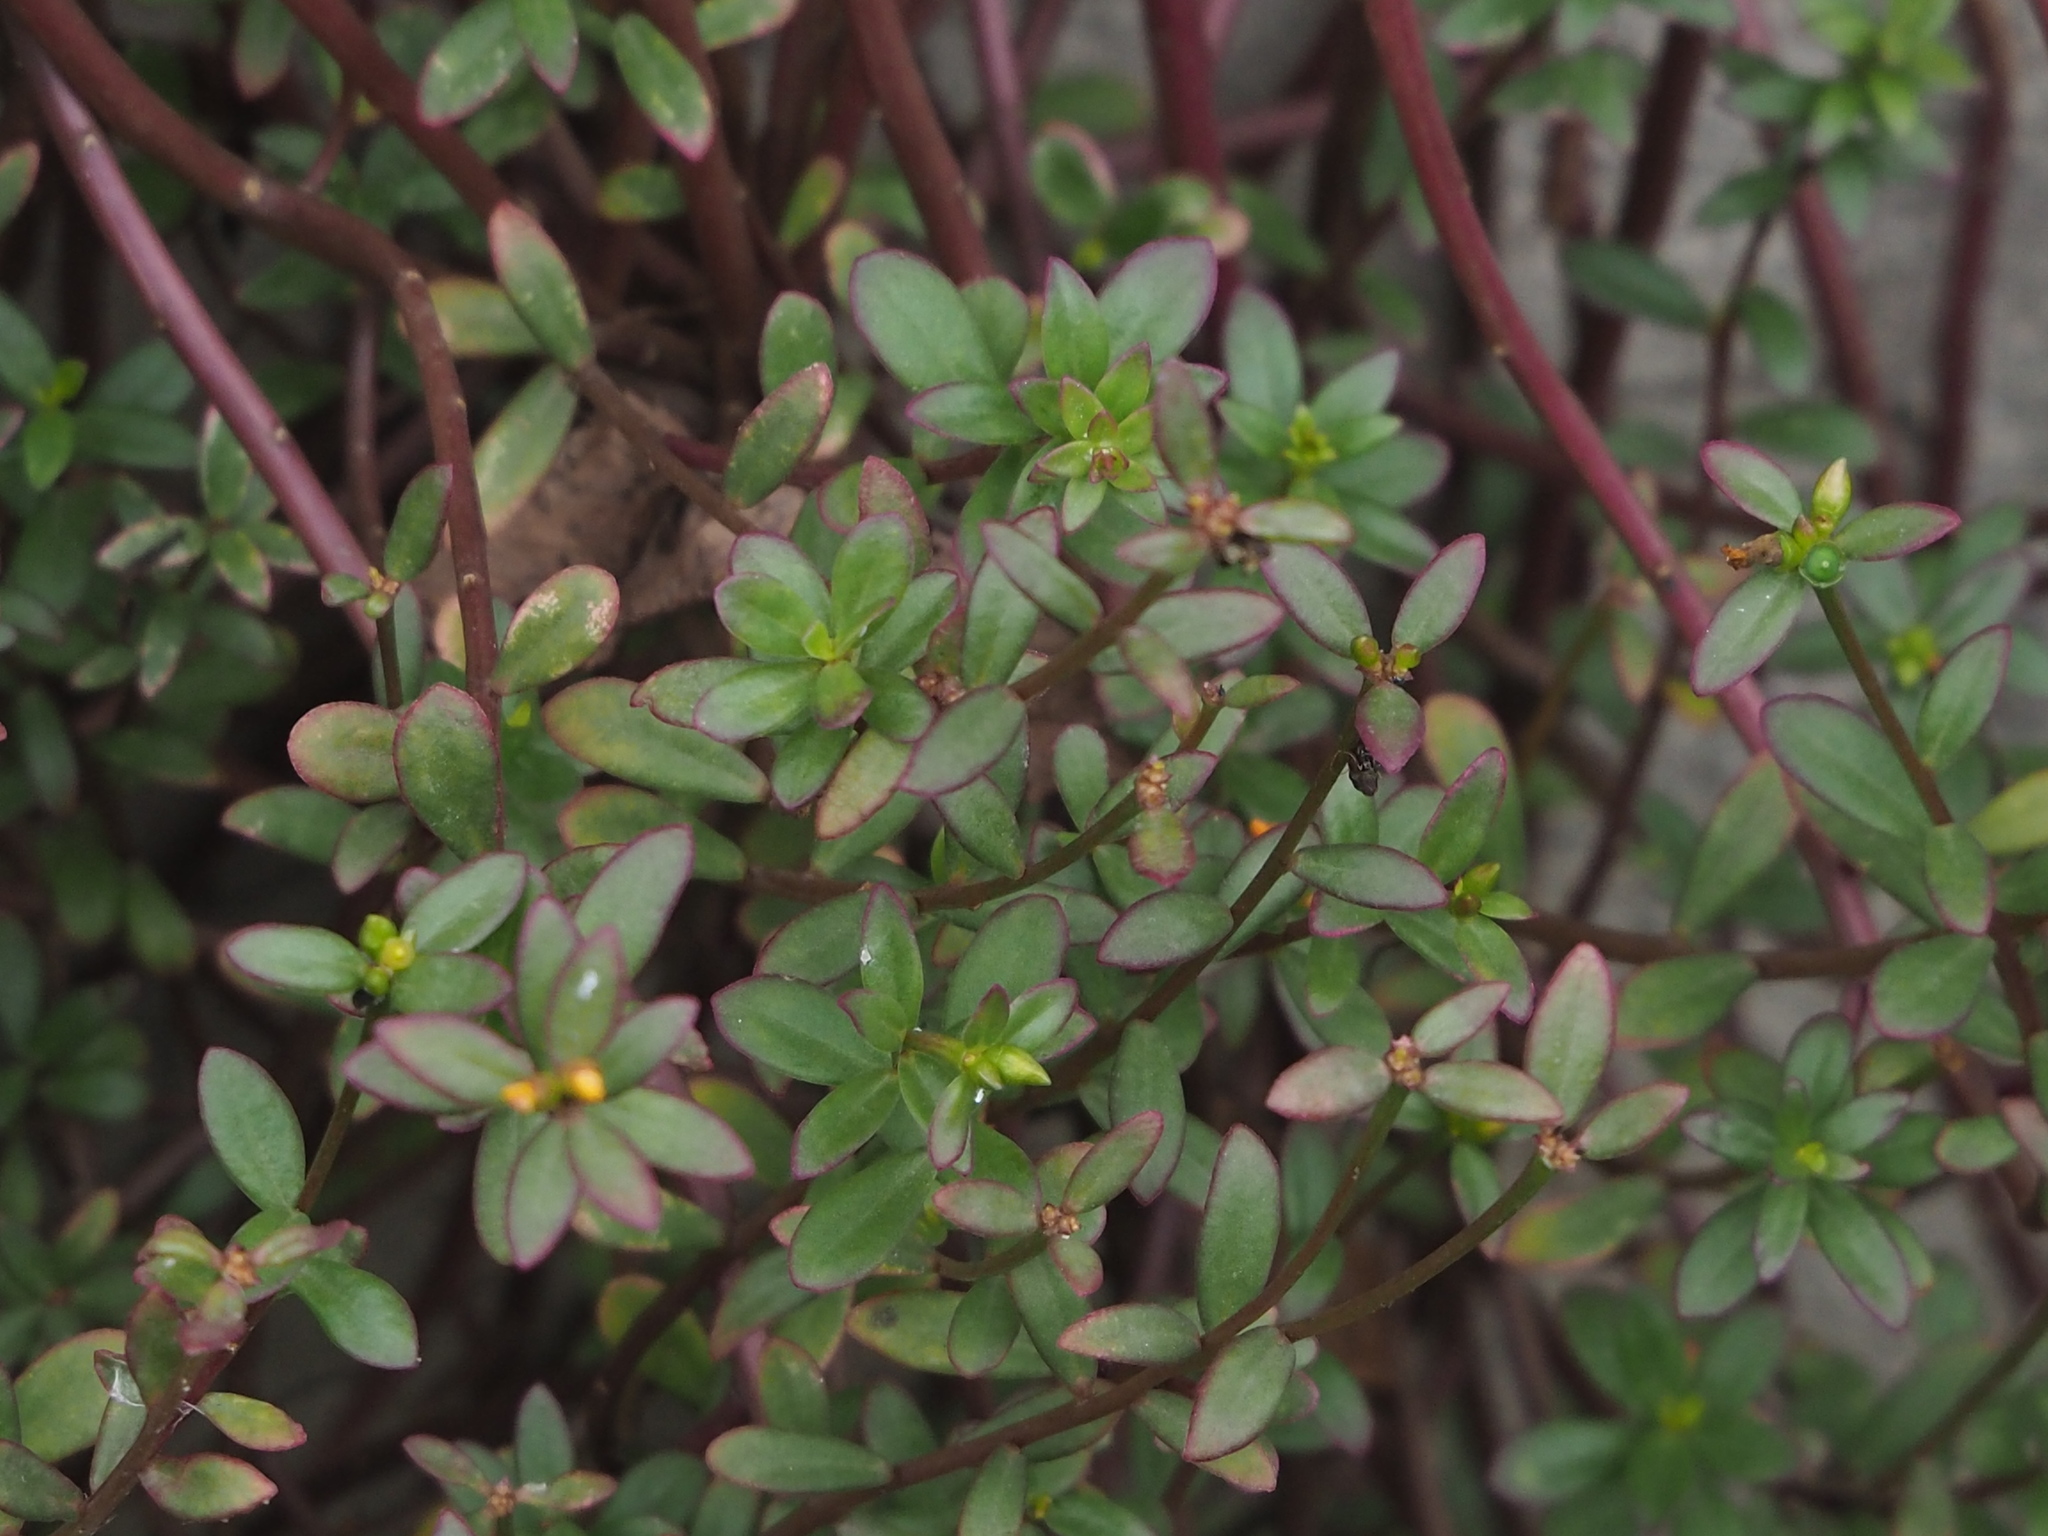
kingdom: Plantae
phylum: Tracheophyta
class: Magnoliopsida
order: Caryophyllales
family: Portulacaceae
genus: Portulaca
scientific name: Portulaca umbraticola
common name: Wingpod purslane
